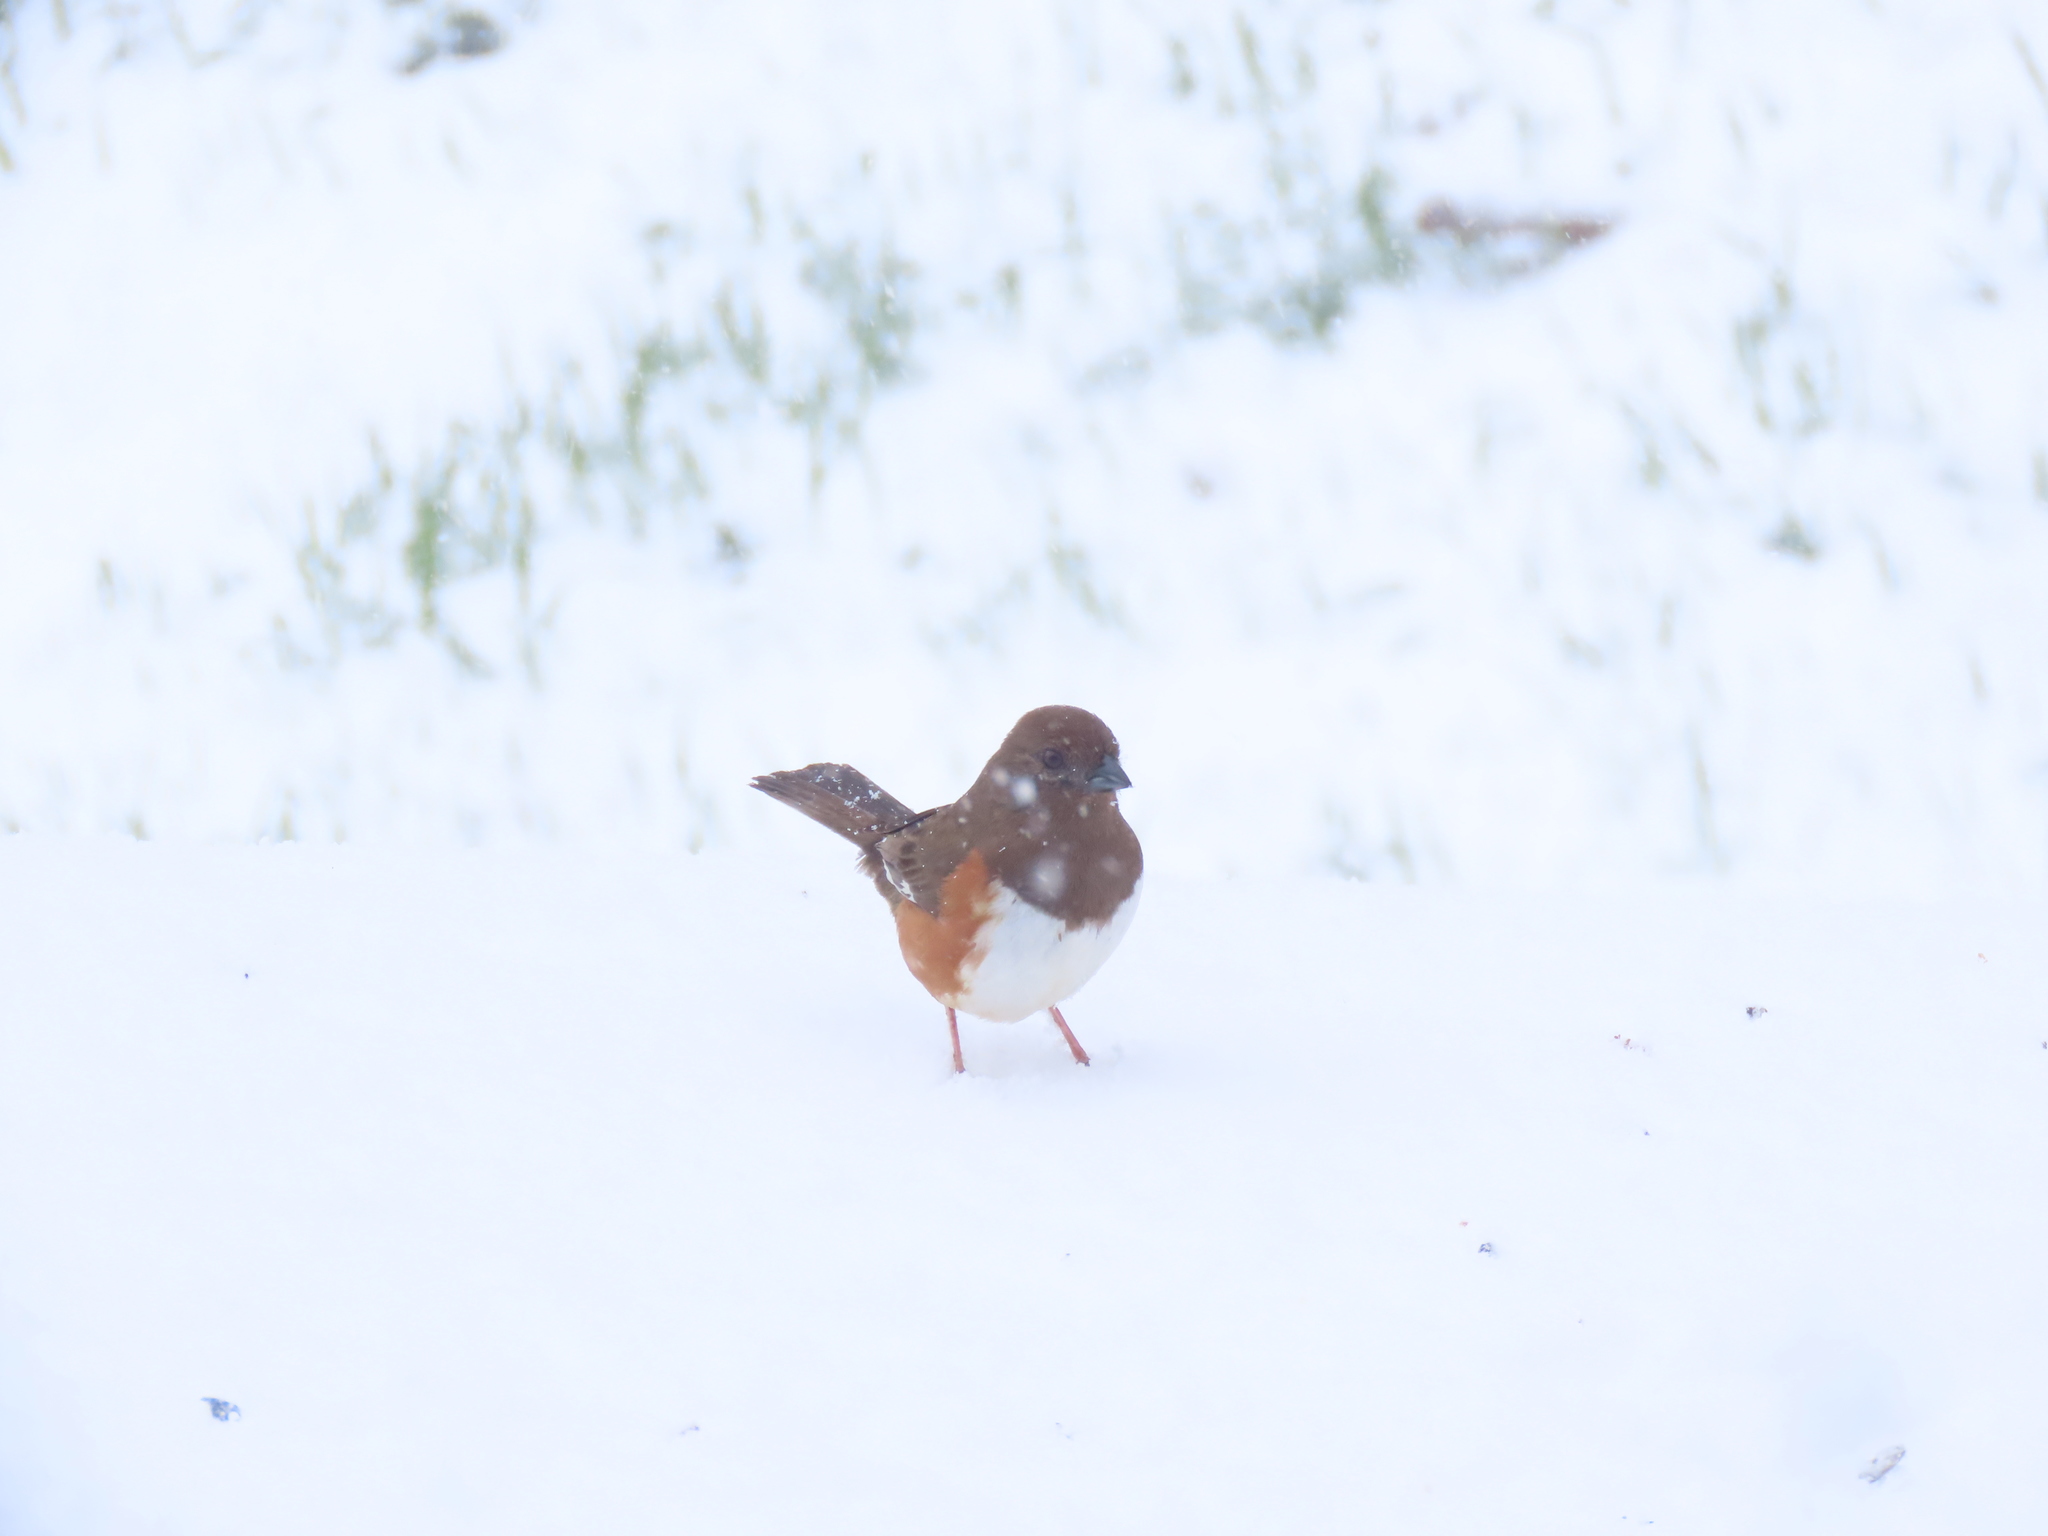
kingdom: Animalia
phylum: Chordata
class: Aves
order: Passeriformes
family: Passerellidae
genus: Pipilo
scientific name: Pipilo erythrophthalmus
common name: Eastern towhee
